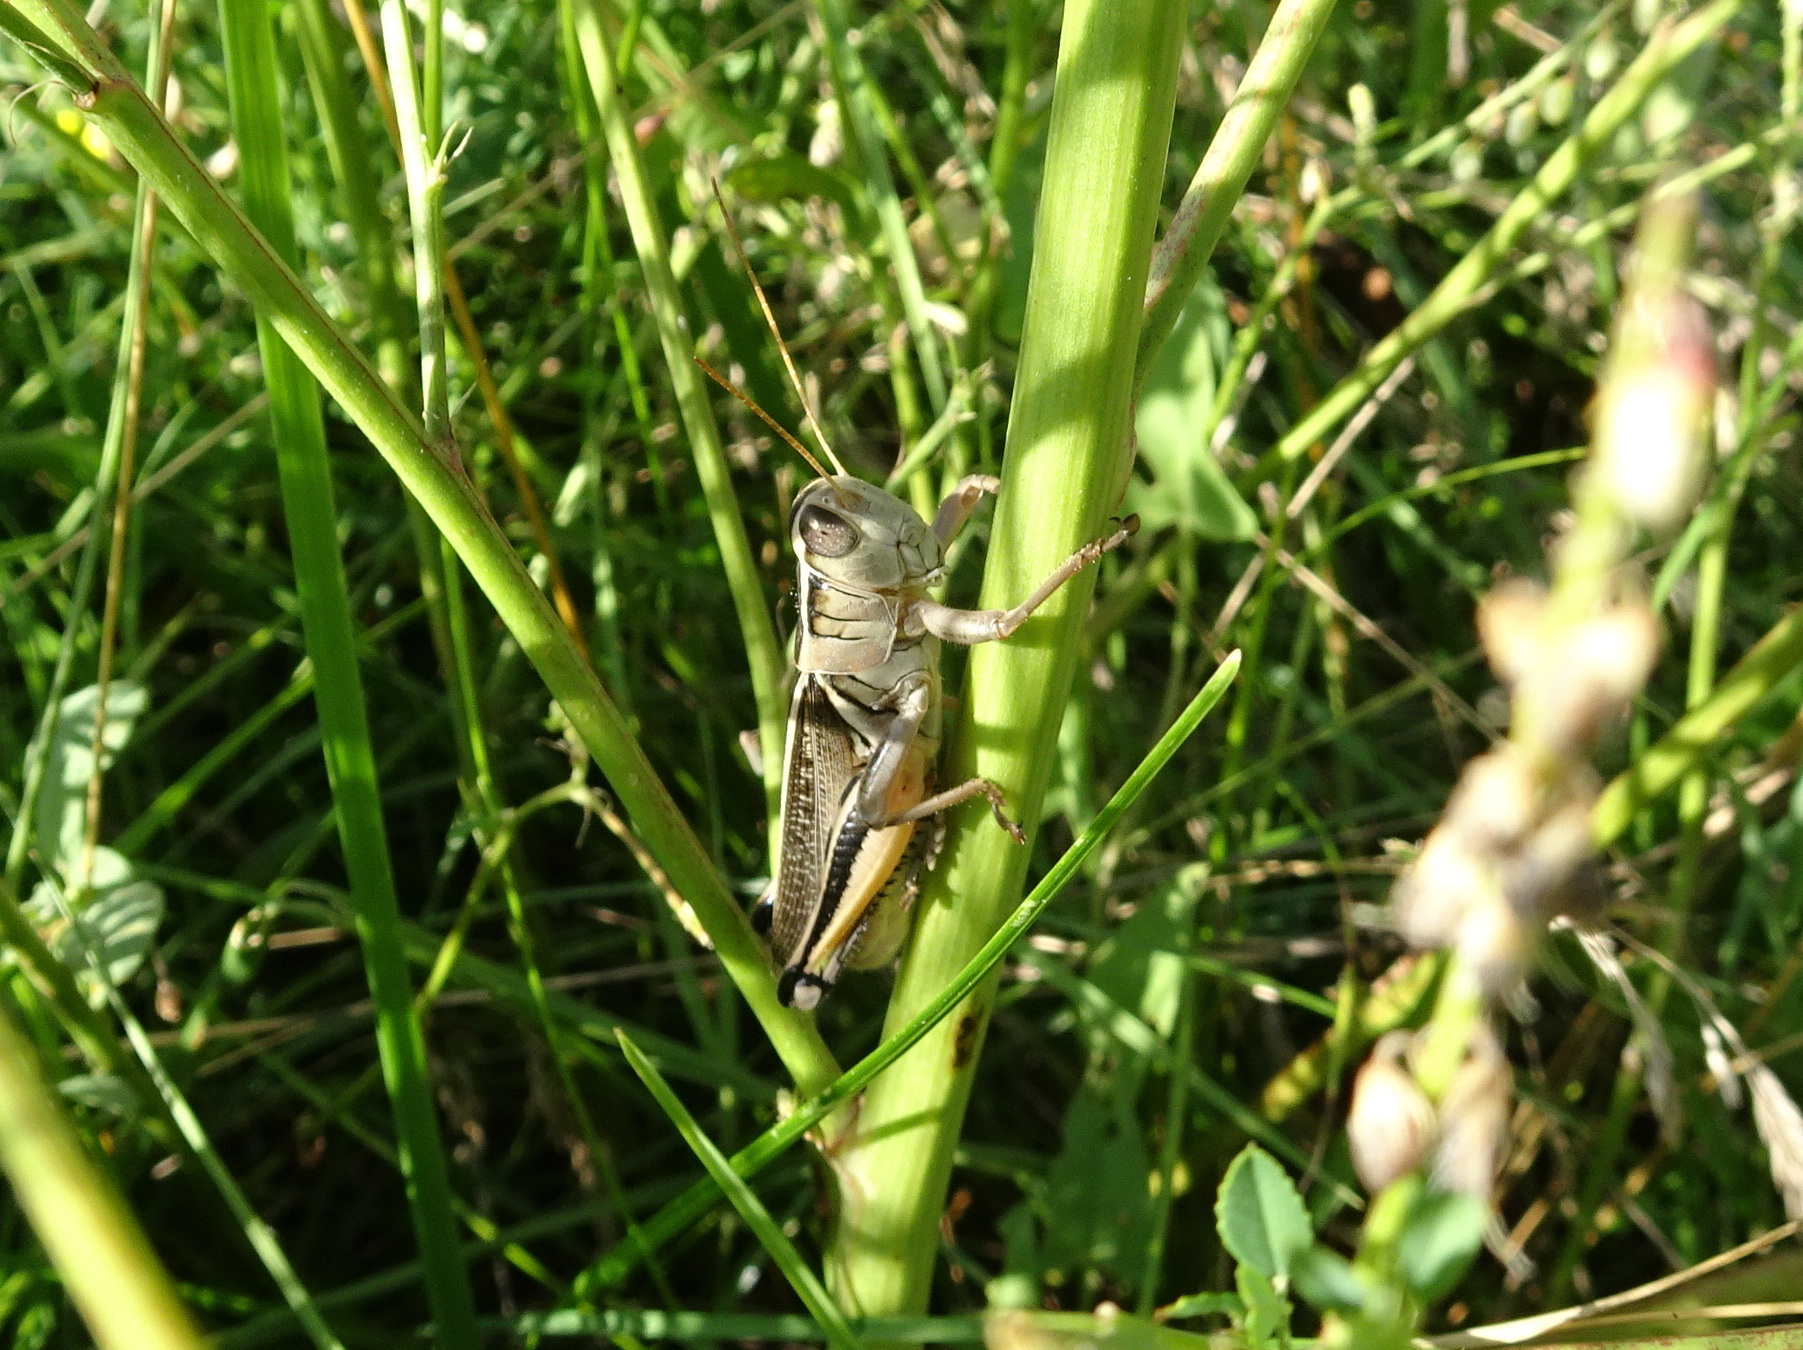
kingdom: Animalia
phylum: Arthropoda
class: Insecta
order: Orthoptera
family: Acrididae
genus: Melanoplus
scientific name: Melanoplus bivittatus
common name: Two-striped grasshopper
